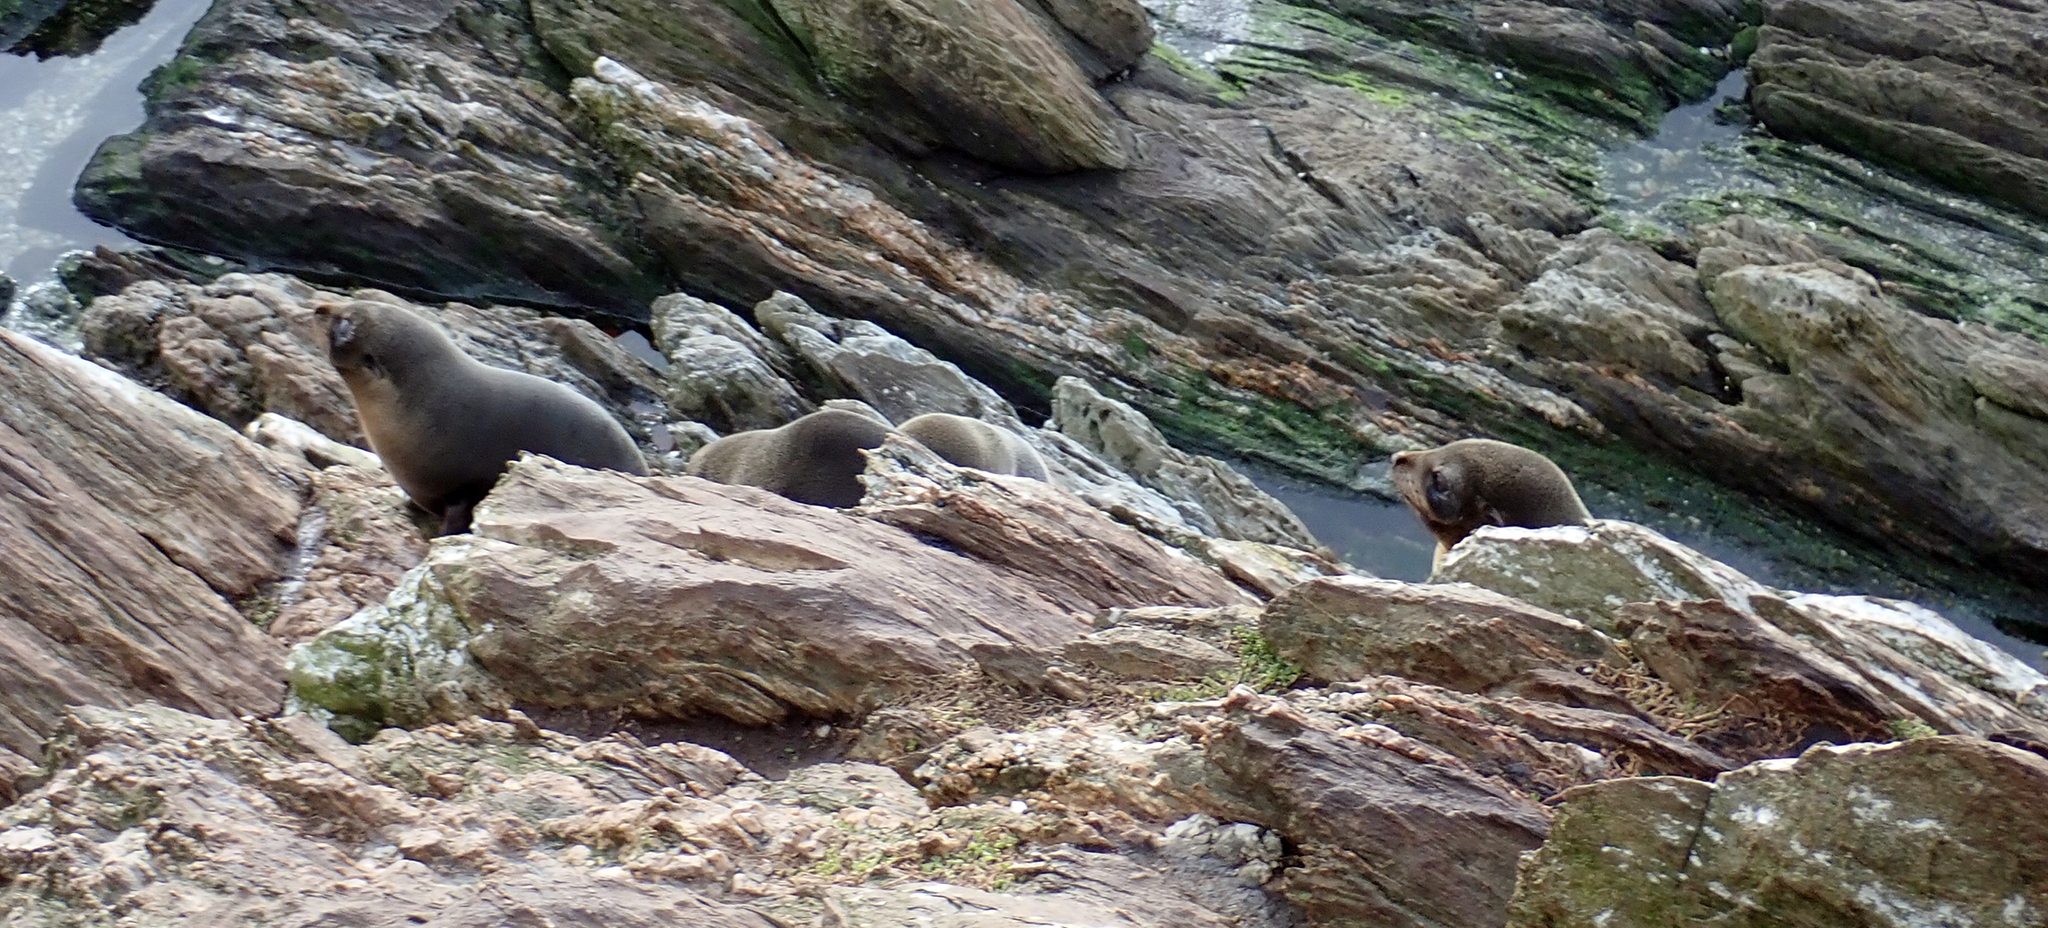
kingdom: Animalia
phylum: Chordata
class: Mammalia
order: Carnivora
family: Otariidae
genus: Arctocephalus
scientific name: Arctocephalus forsteri
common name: New zealand fur seal
